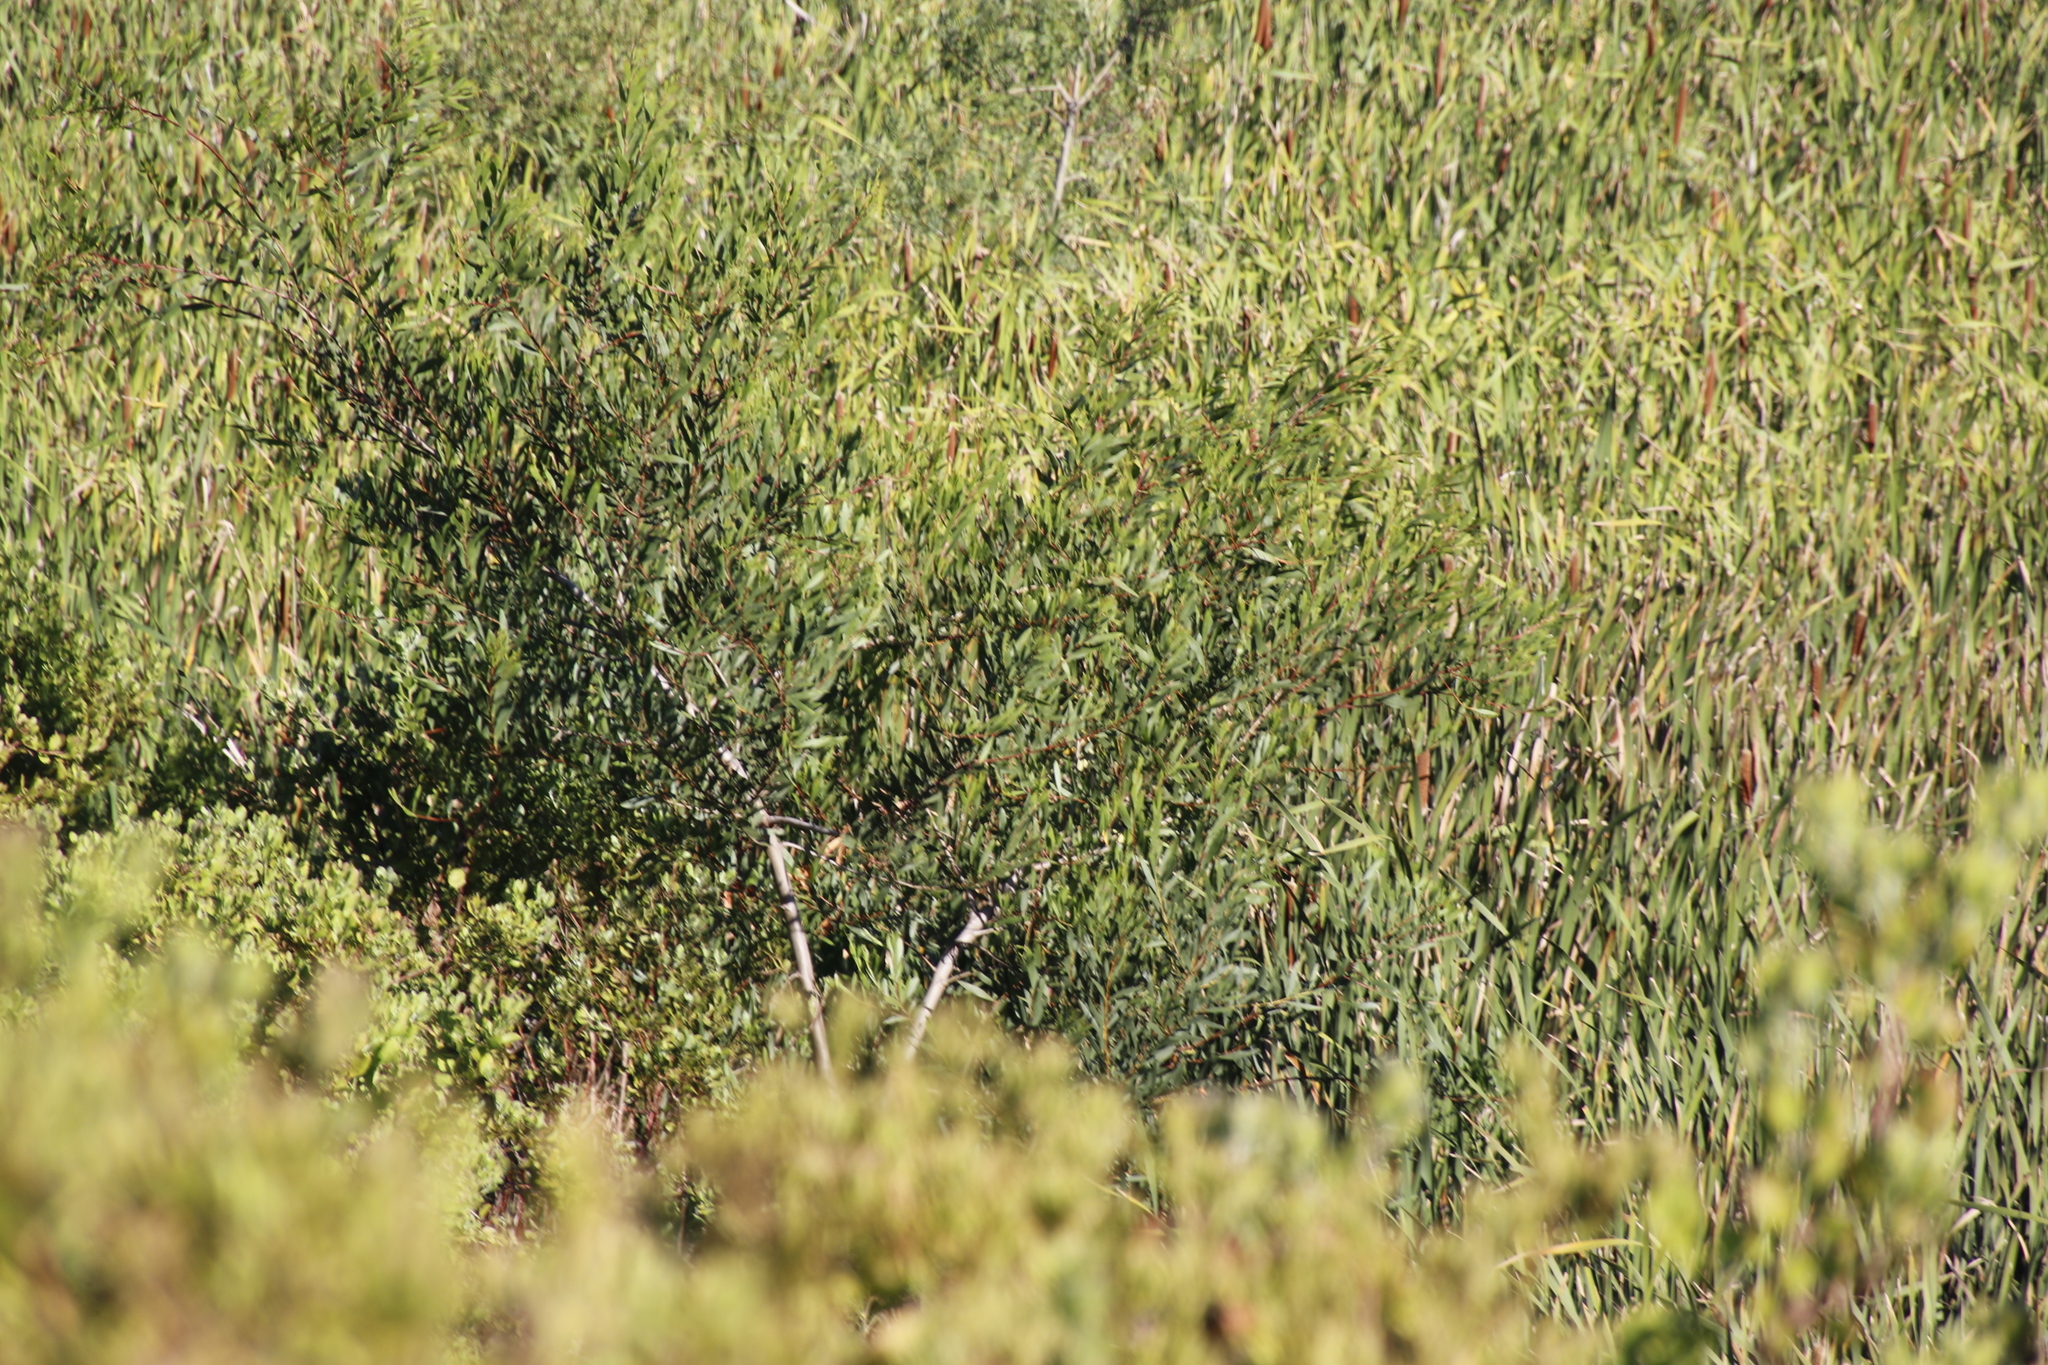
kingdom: Plantae
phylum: Tracheophyta
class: Magnoliopsida
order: Fabales
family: Fabaceae
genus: Acacia
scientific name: Acacia longifolia
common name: Sydney golden wattle
